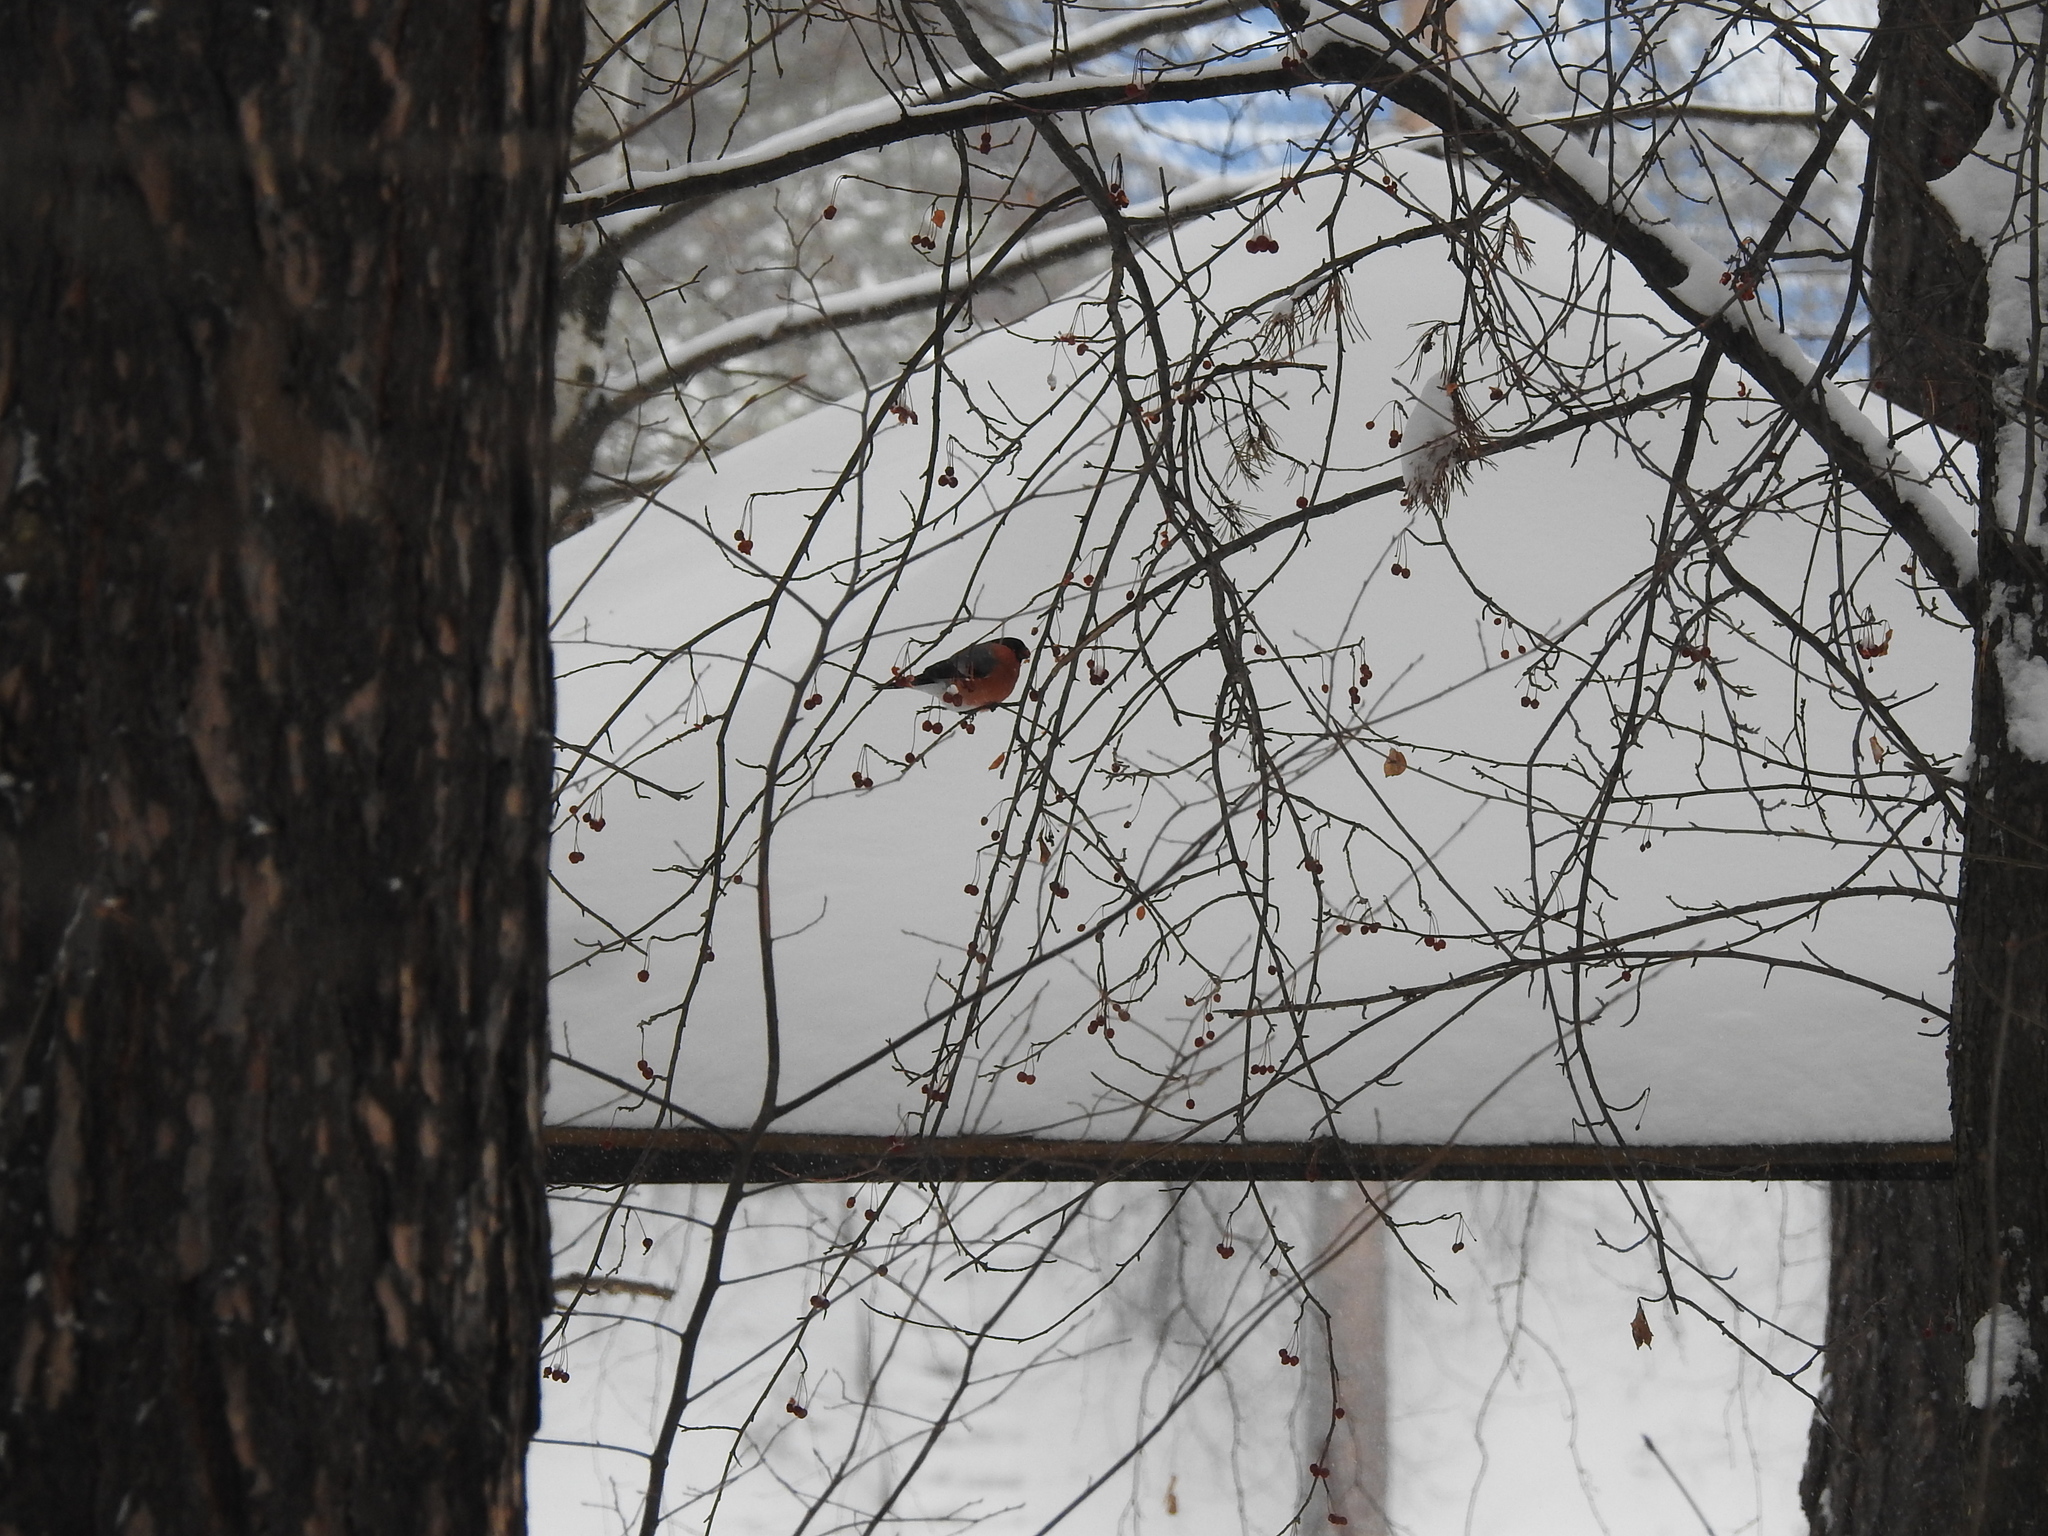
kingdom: Animalia
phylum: Chordata
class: Aves
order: Passeriformes
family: Fringillidae
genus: Pyrrhula
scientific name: Pyrrhula pyrrhula
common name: Eurasian bullfinch
